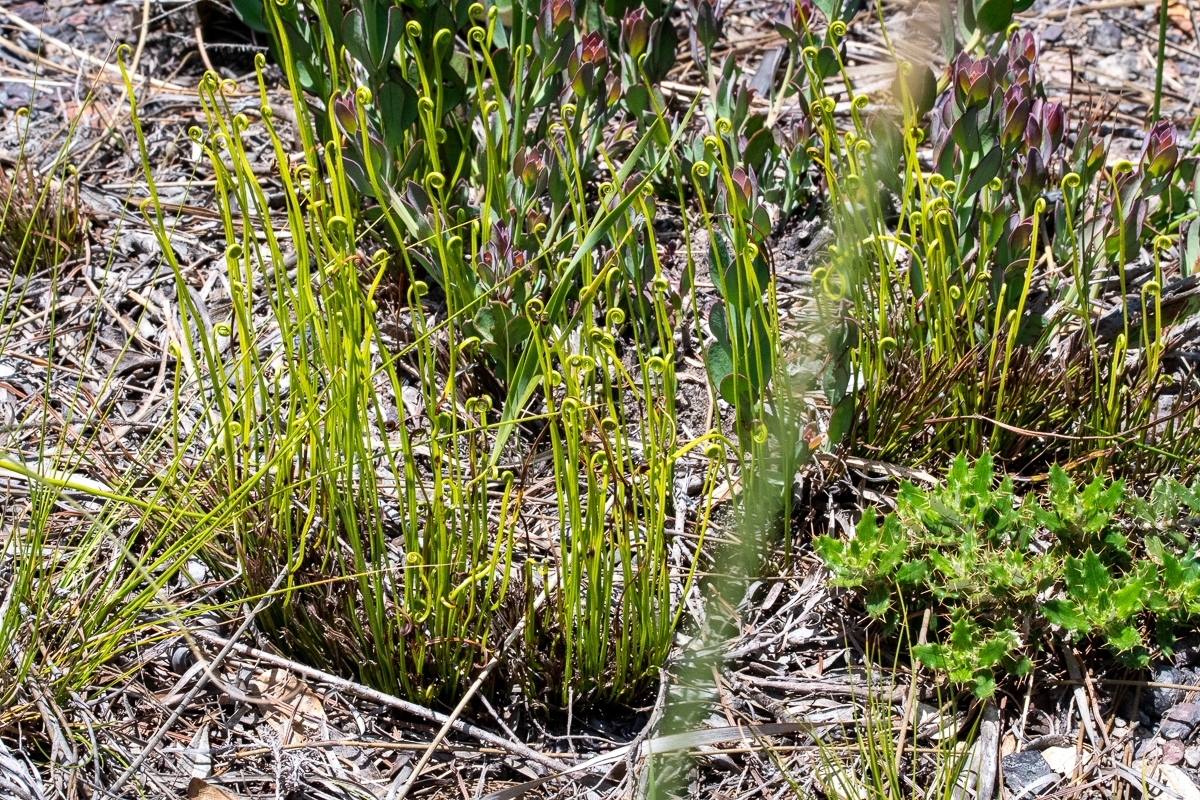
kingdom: Plantae
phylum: Tracheophyta
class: Polypodiopsida
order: Schizaeales
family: Schizaeaceae
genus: Schizaea
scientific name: Schizaea pectinata
